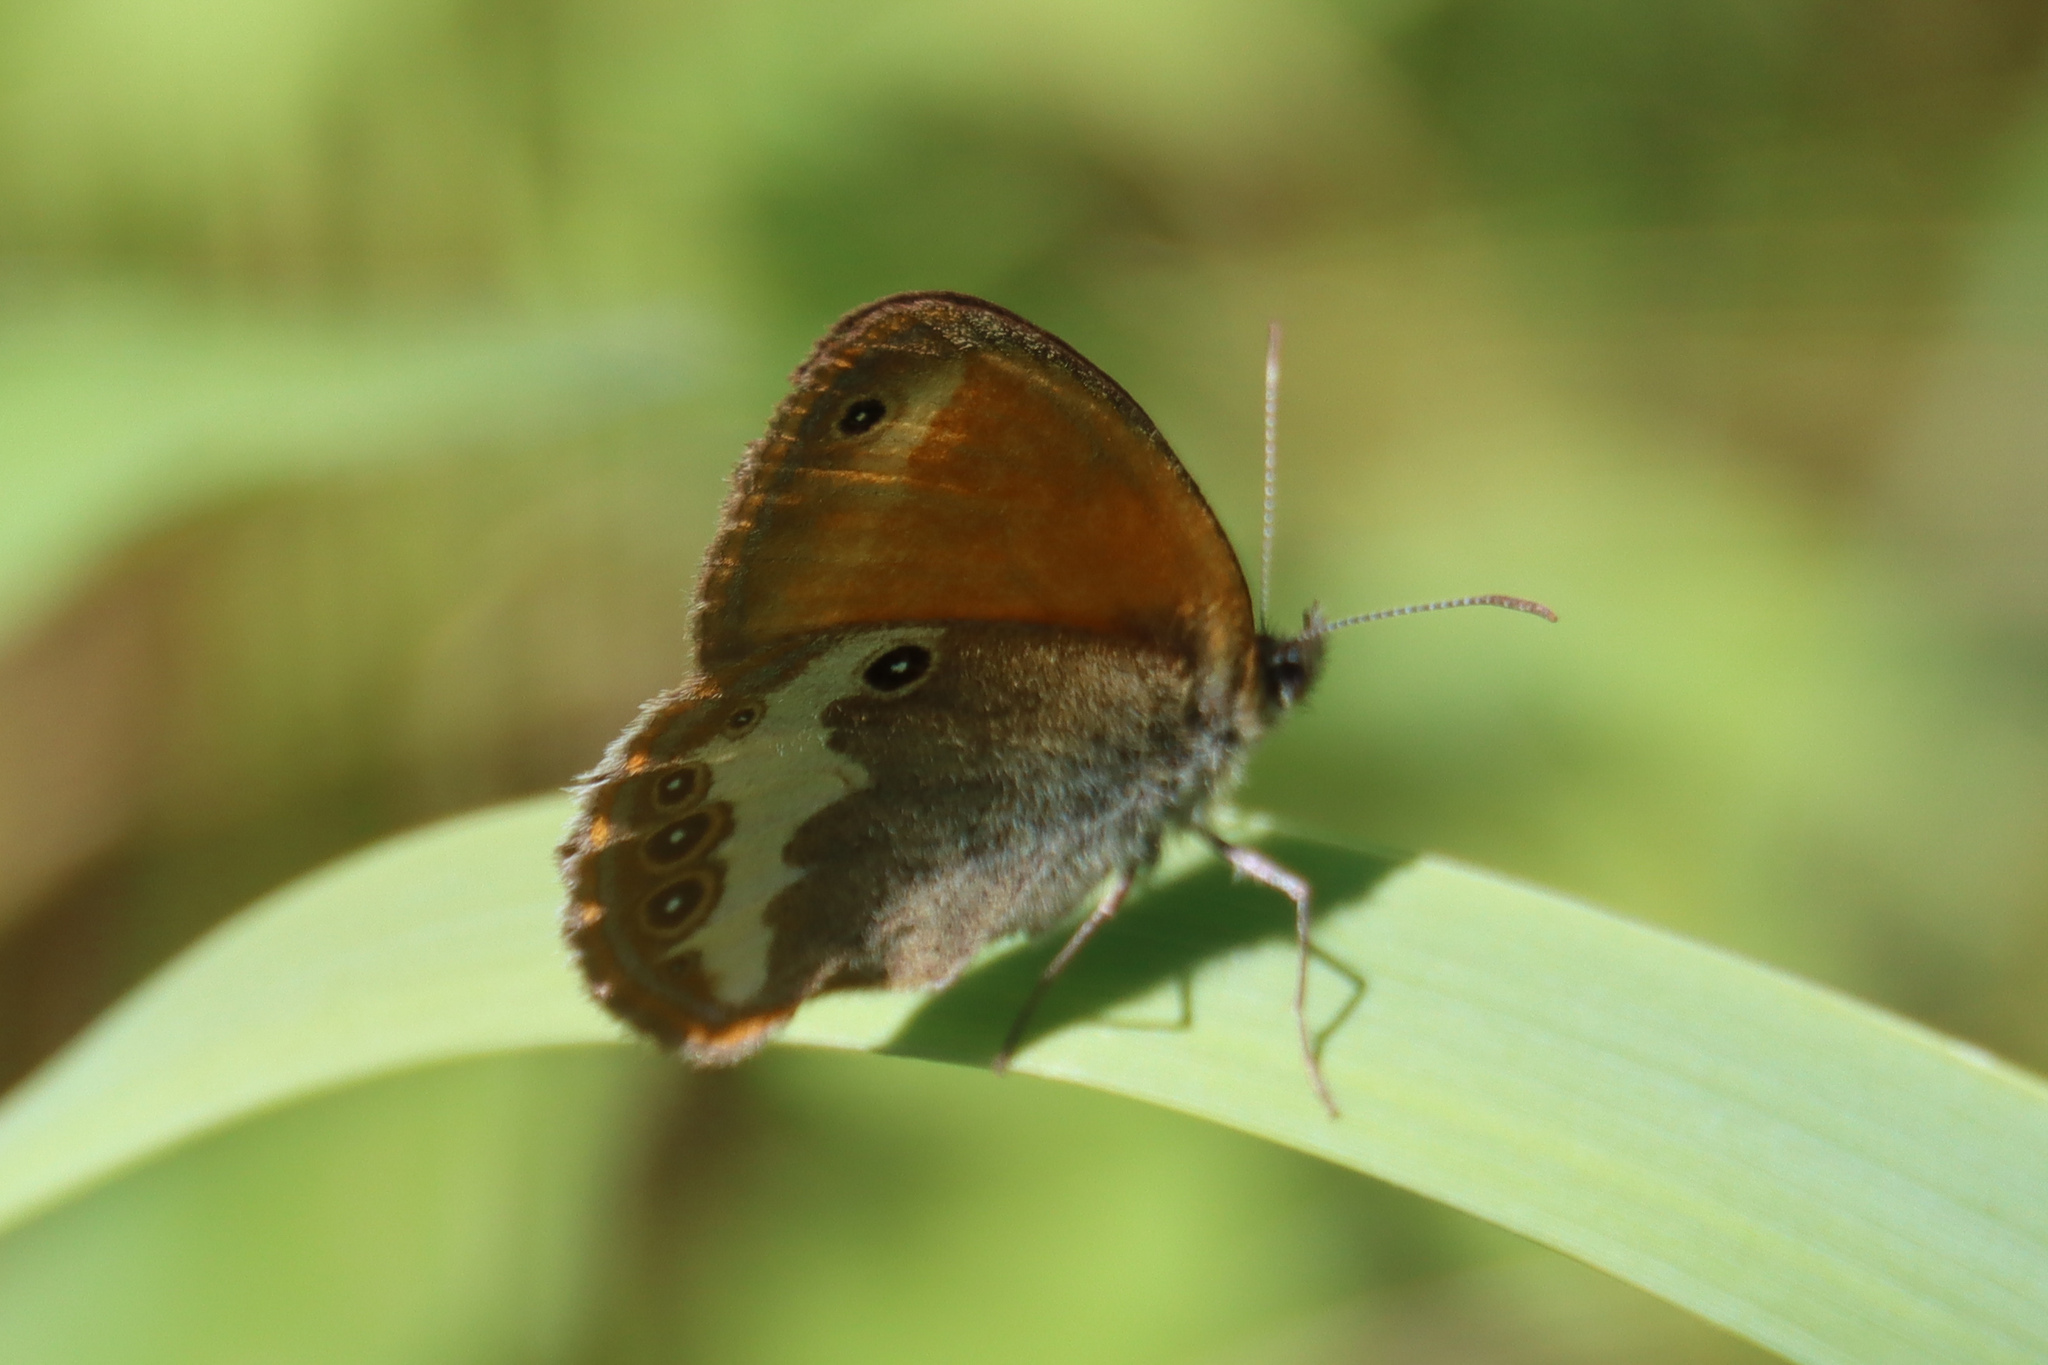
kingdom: Animalia
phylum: Arthropoda
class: Insecta
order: Lepidoptera
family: Nymphalidae
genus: Coenonympha
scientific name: Coenonympha arcania
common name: Pearly heath
